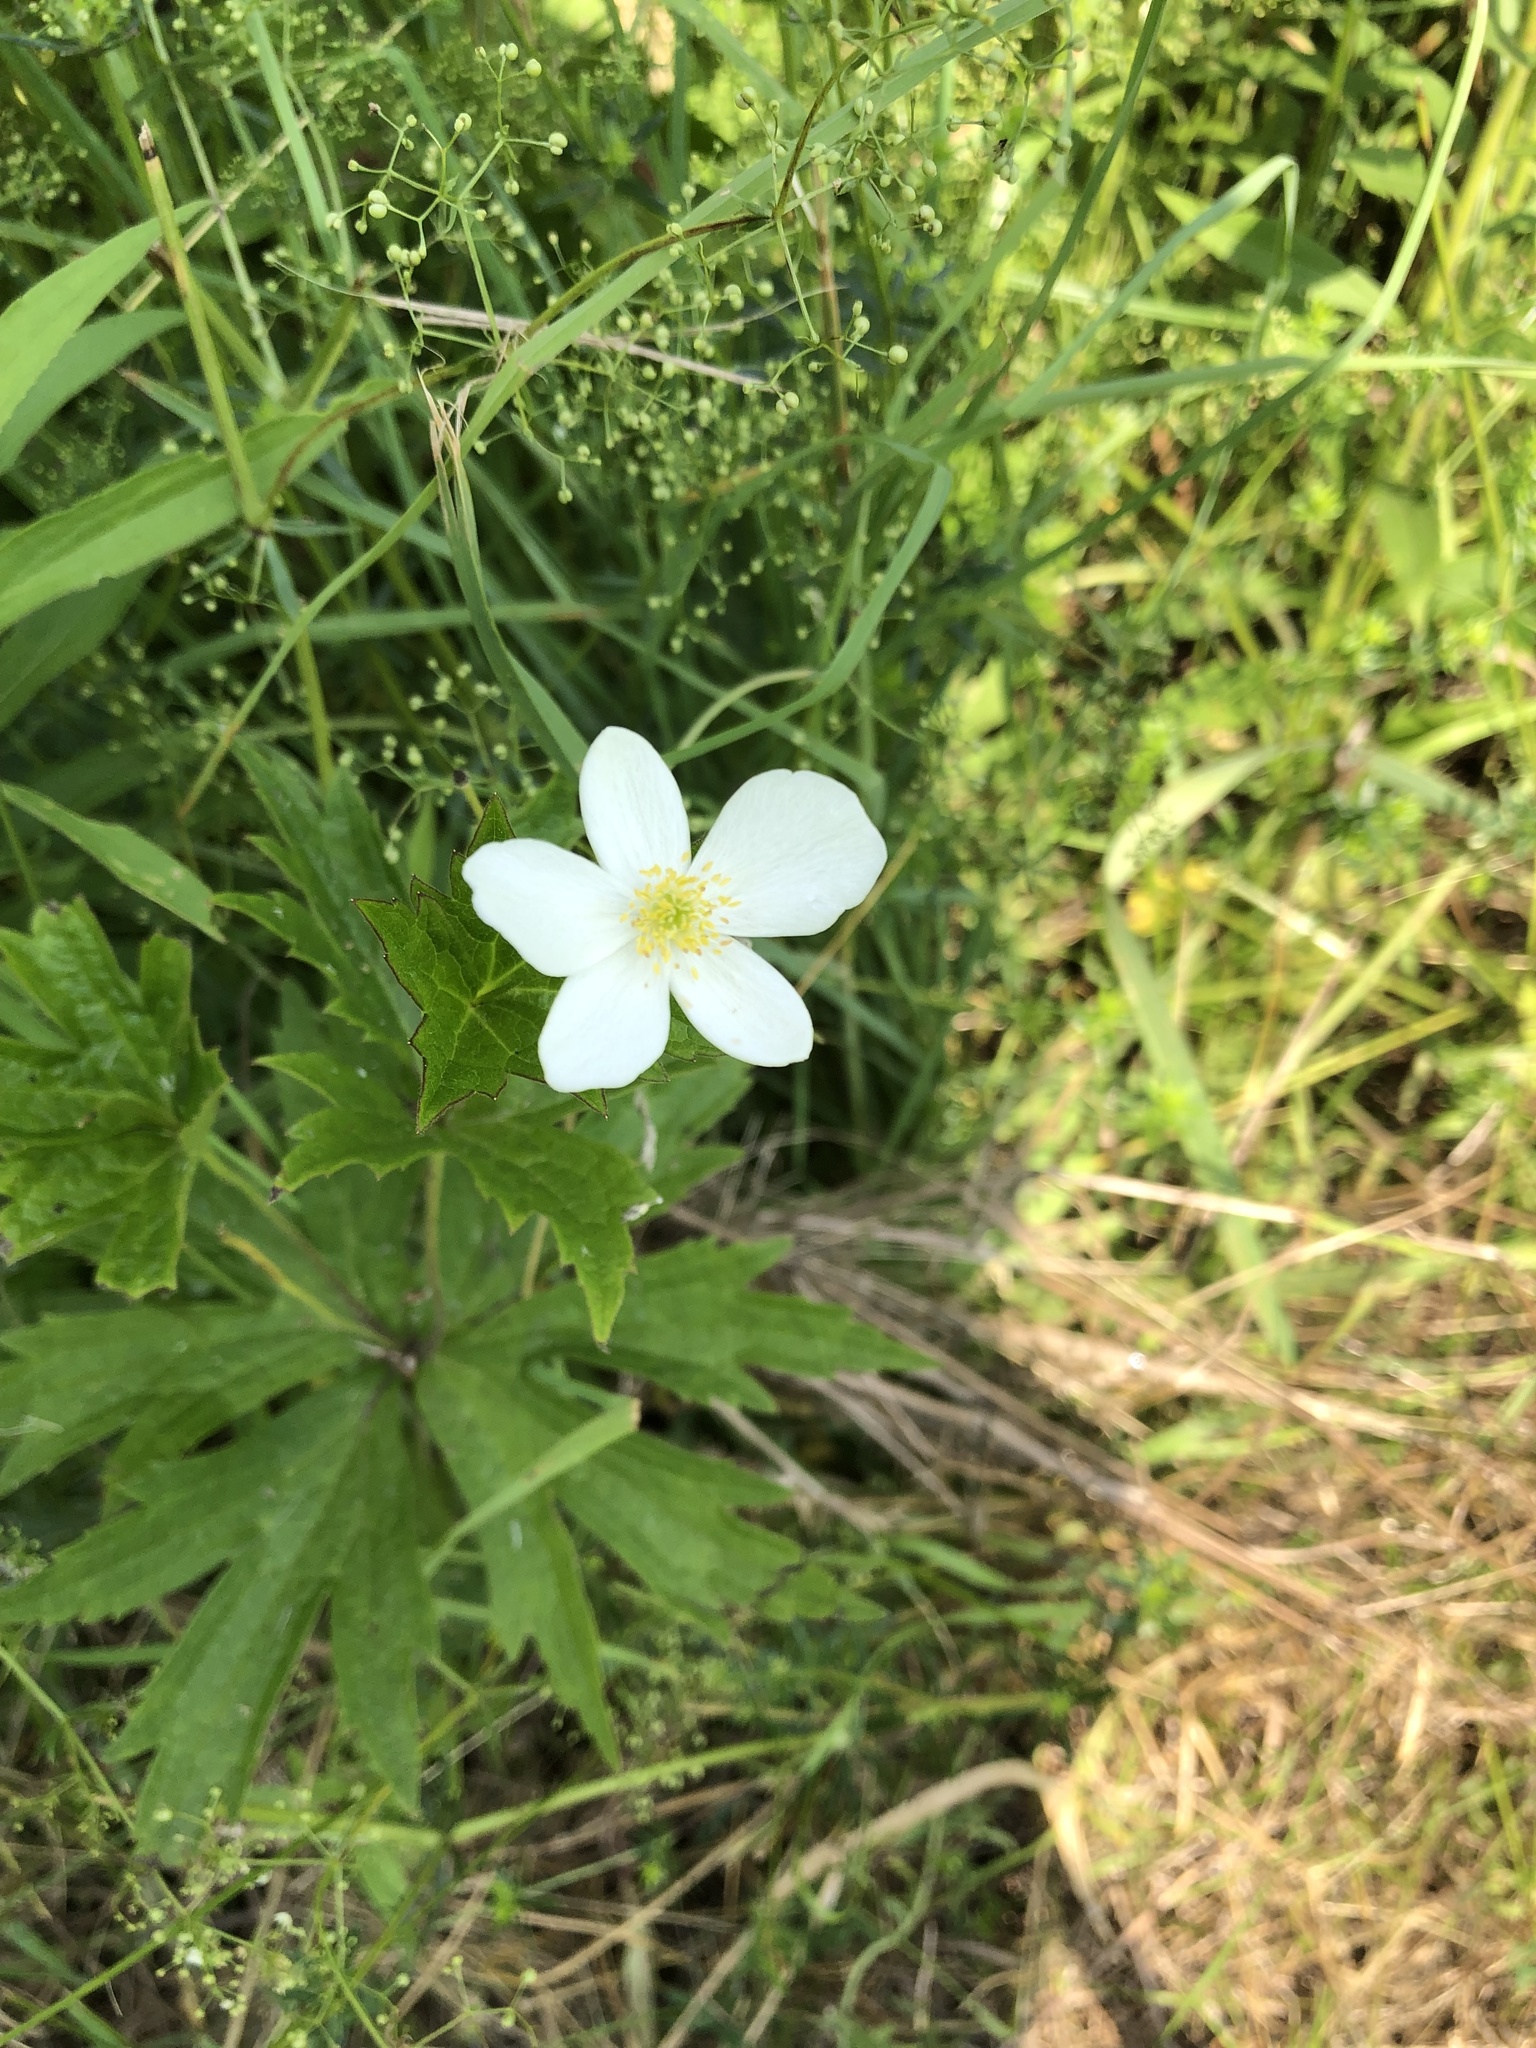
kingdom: Plantae
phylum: Tracheophyta
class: Magnoliopsida
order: Ranunculales
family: Ranunculaceae
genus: Anemonastrum
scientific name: Anemonastrum canadense
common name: Canada anemone
